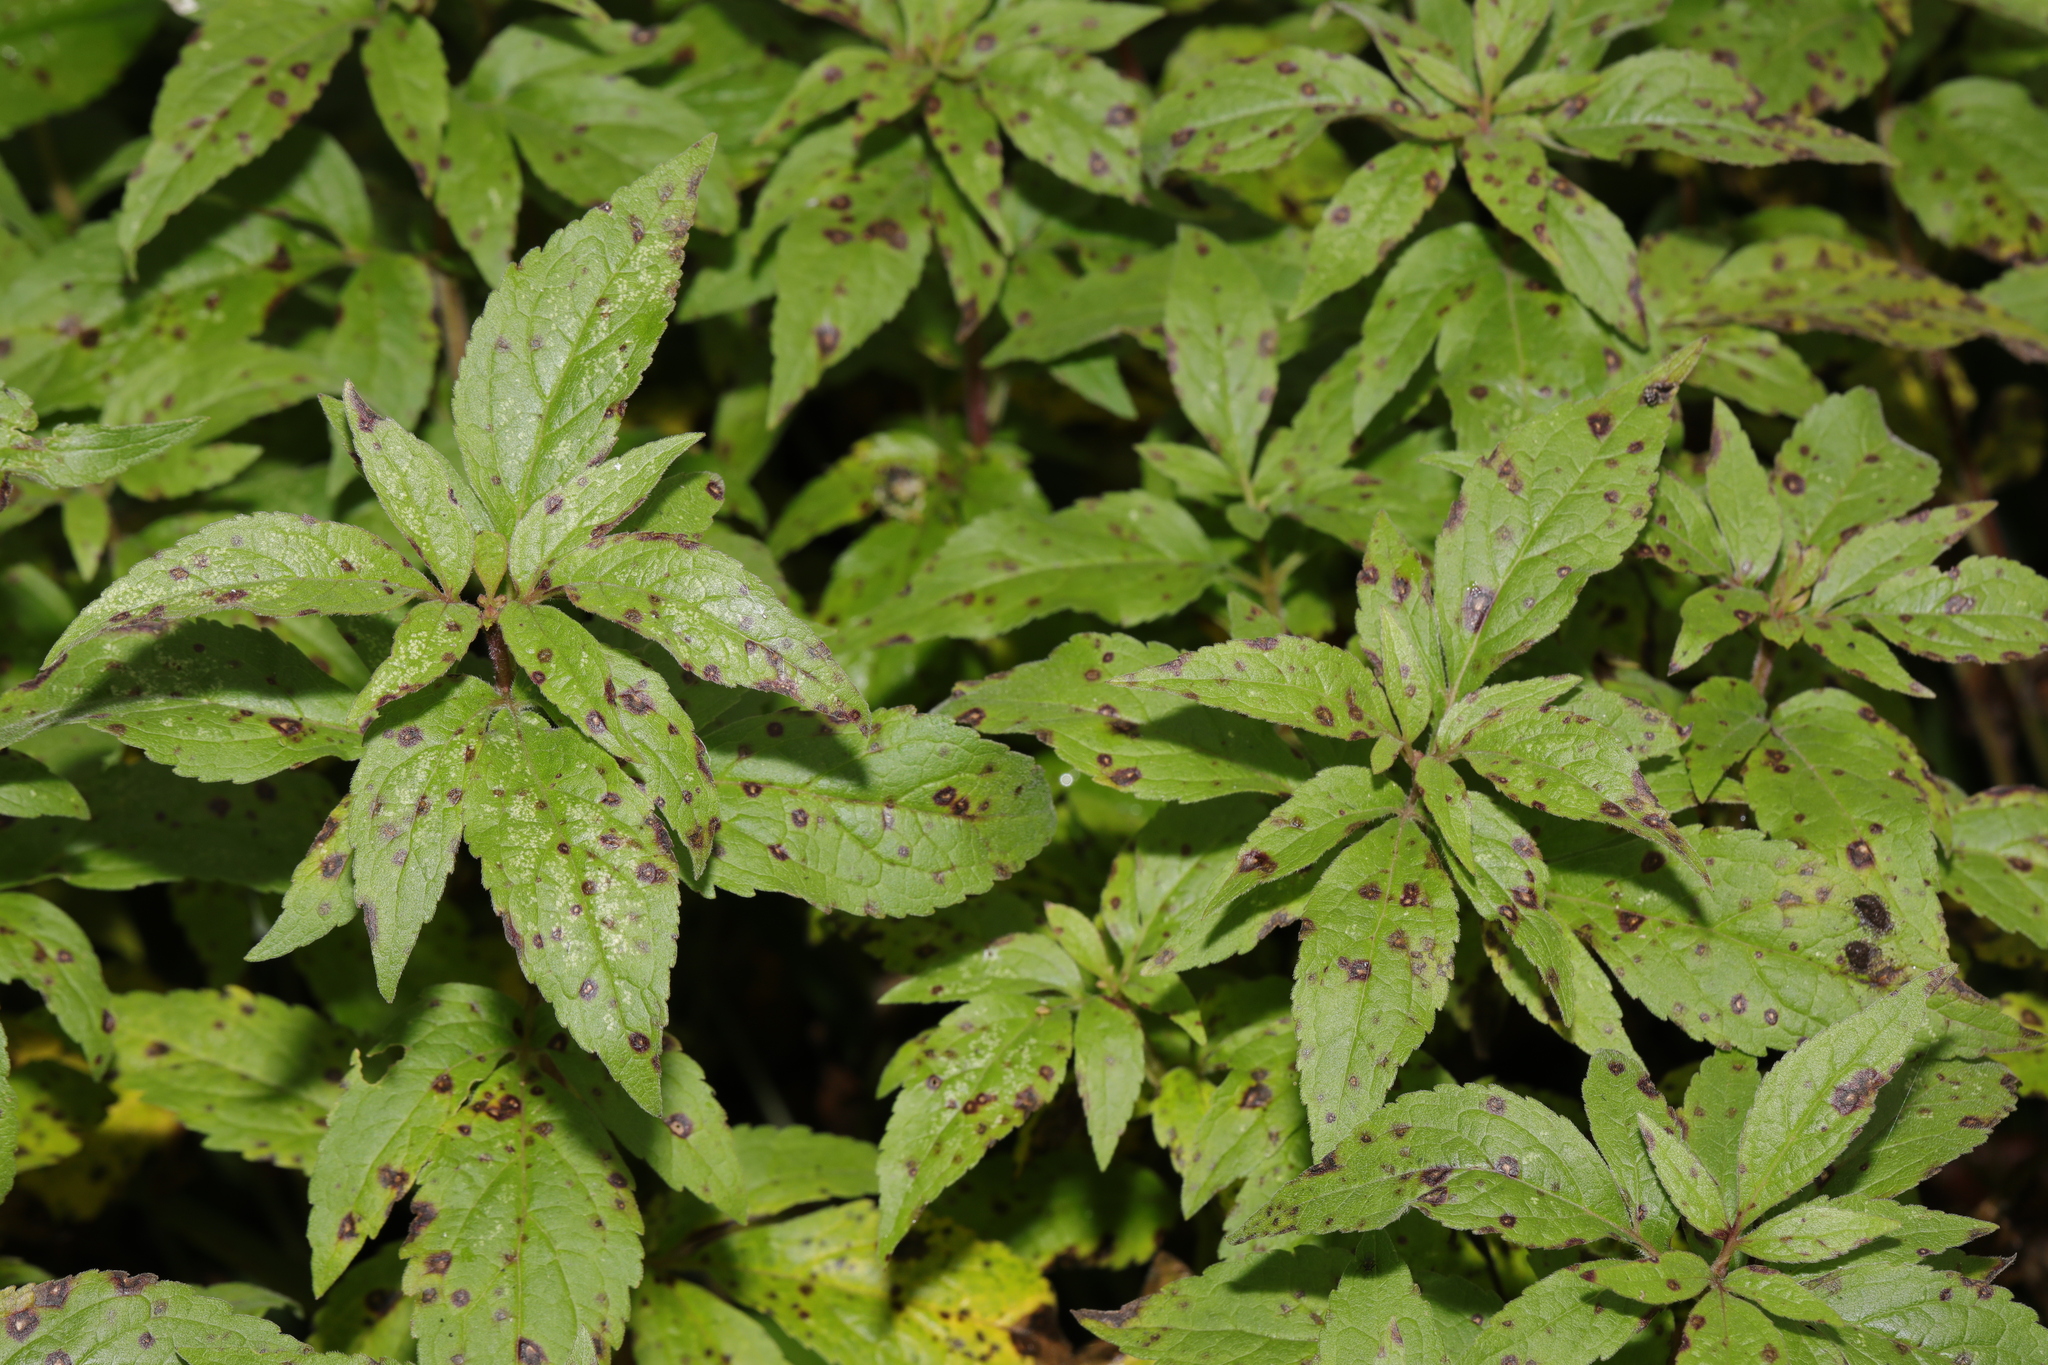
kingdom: Plantae
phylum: Tracheophyta
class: Magnoliopsida
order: Asterales
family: Asteraceae
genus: Eupatorium
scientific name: Eupatorium cannabinum
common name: Hemp-agrimony
